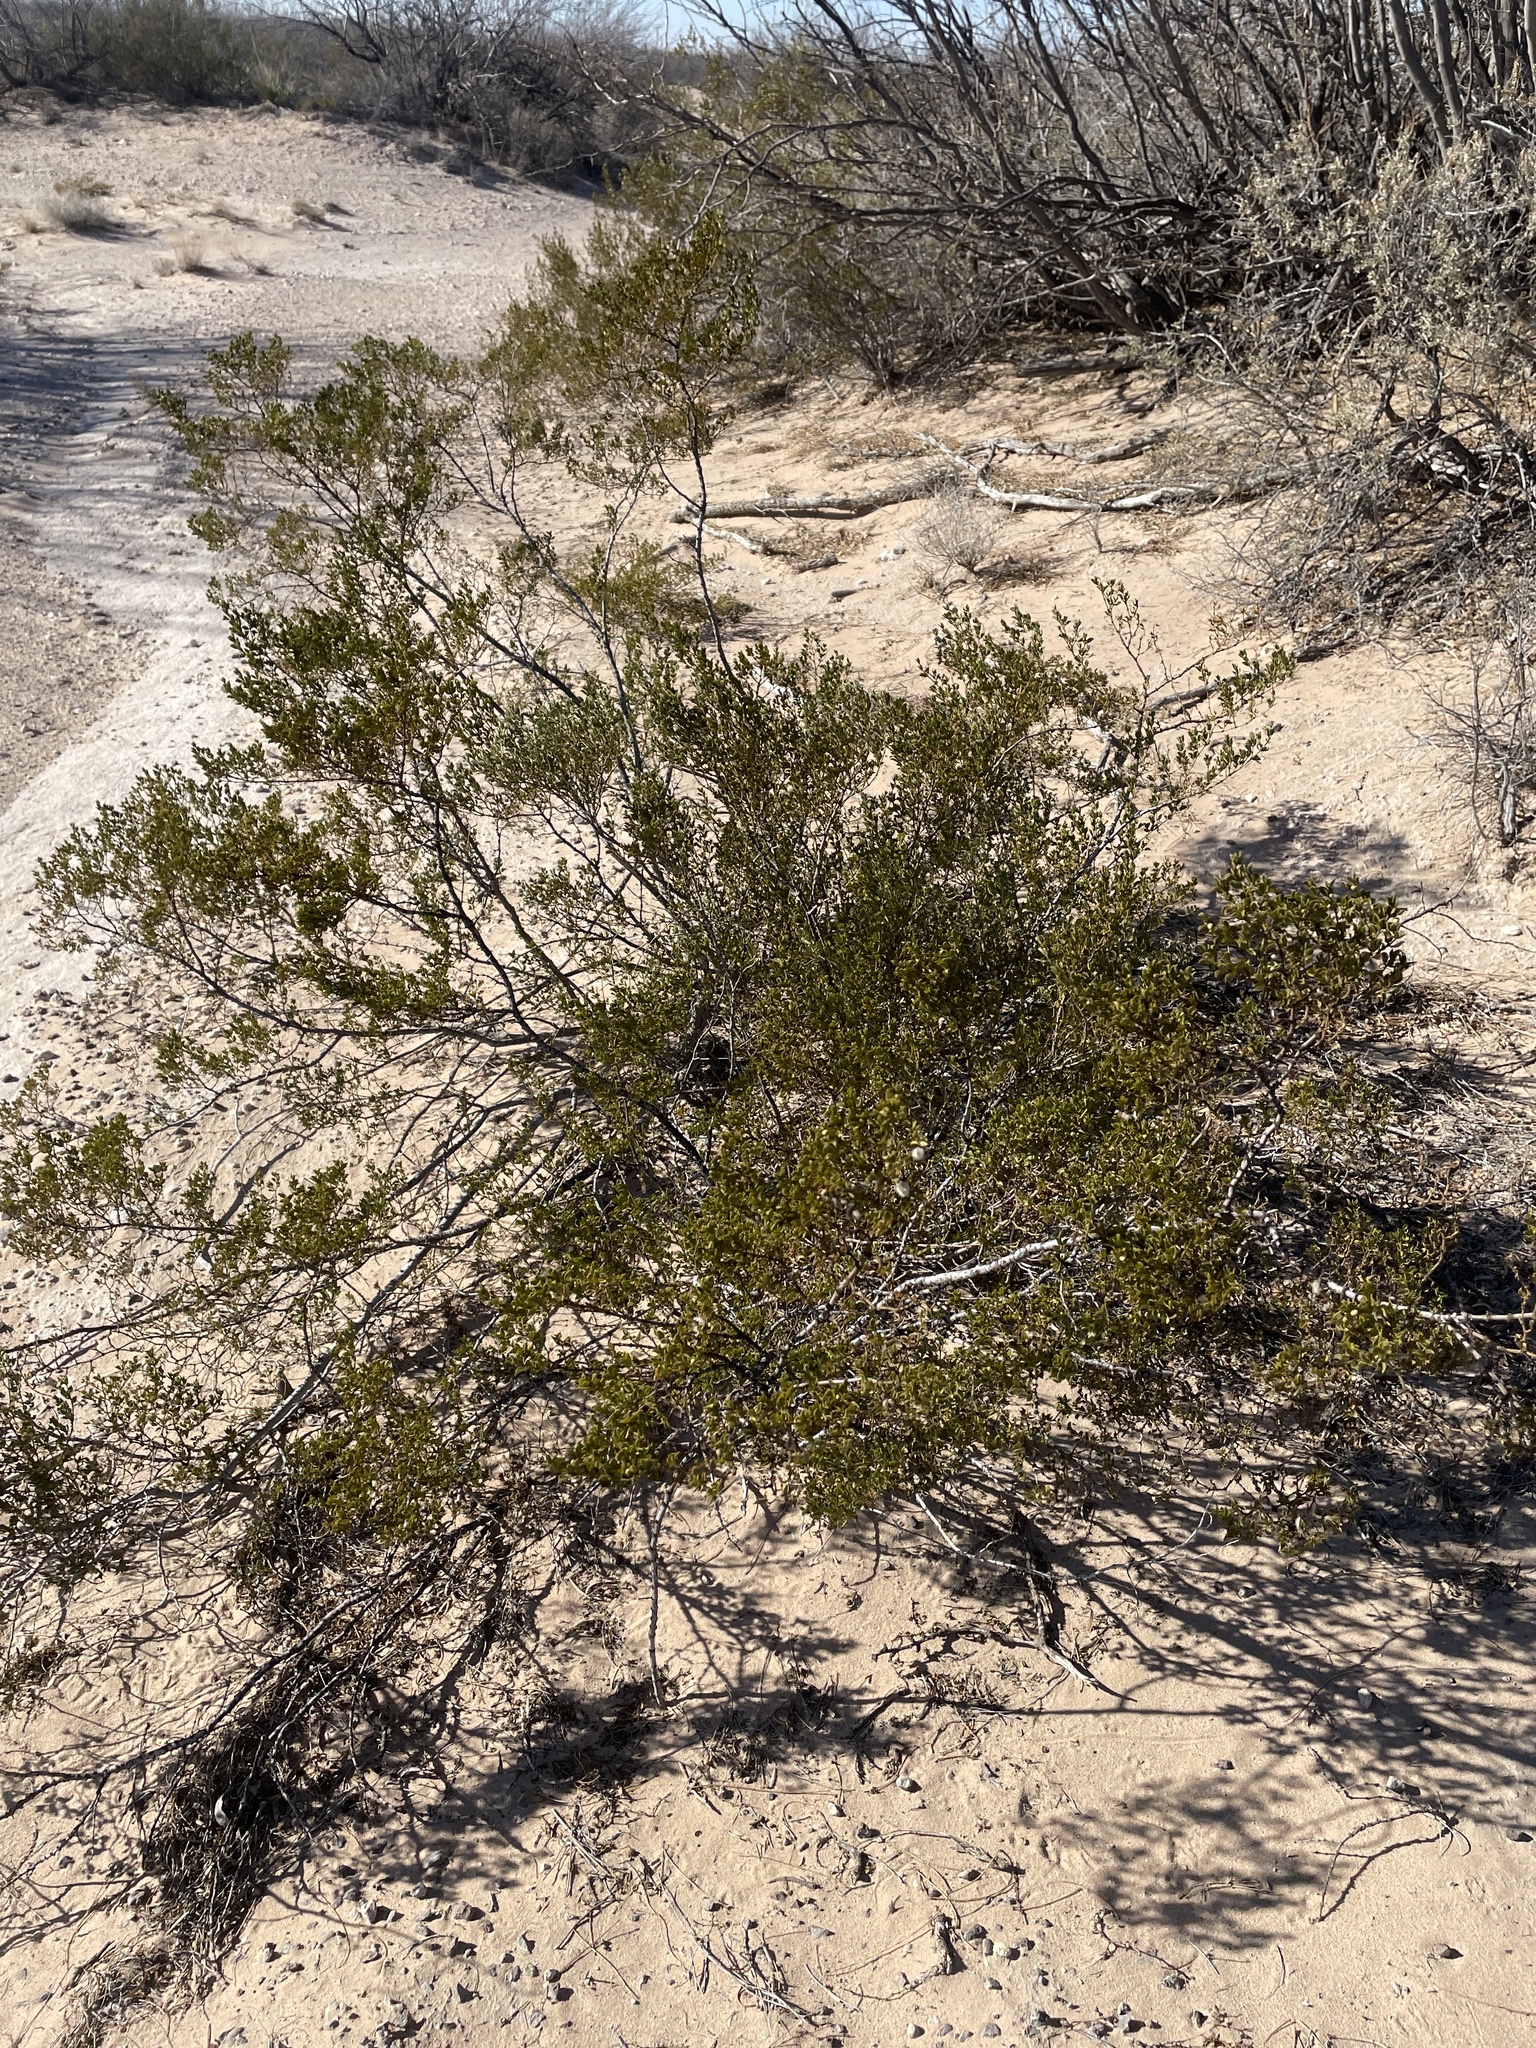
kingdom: Plantae
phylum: Tracheophyta
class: Magnoliopsida
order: Zygophyllales
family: Zygophyllaceae
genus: Larrea
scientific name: Larrea tridentata
